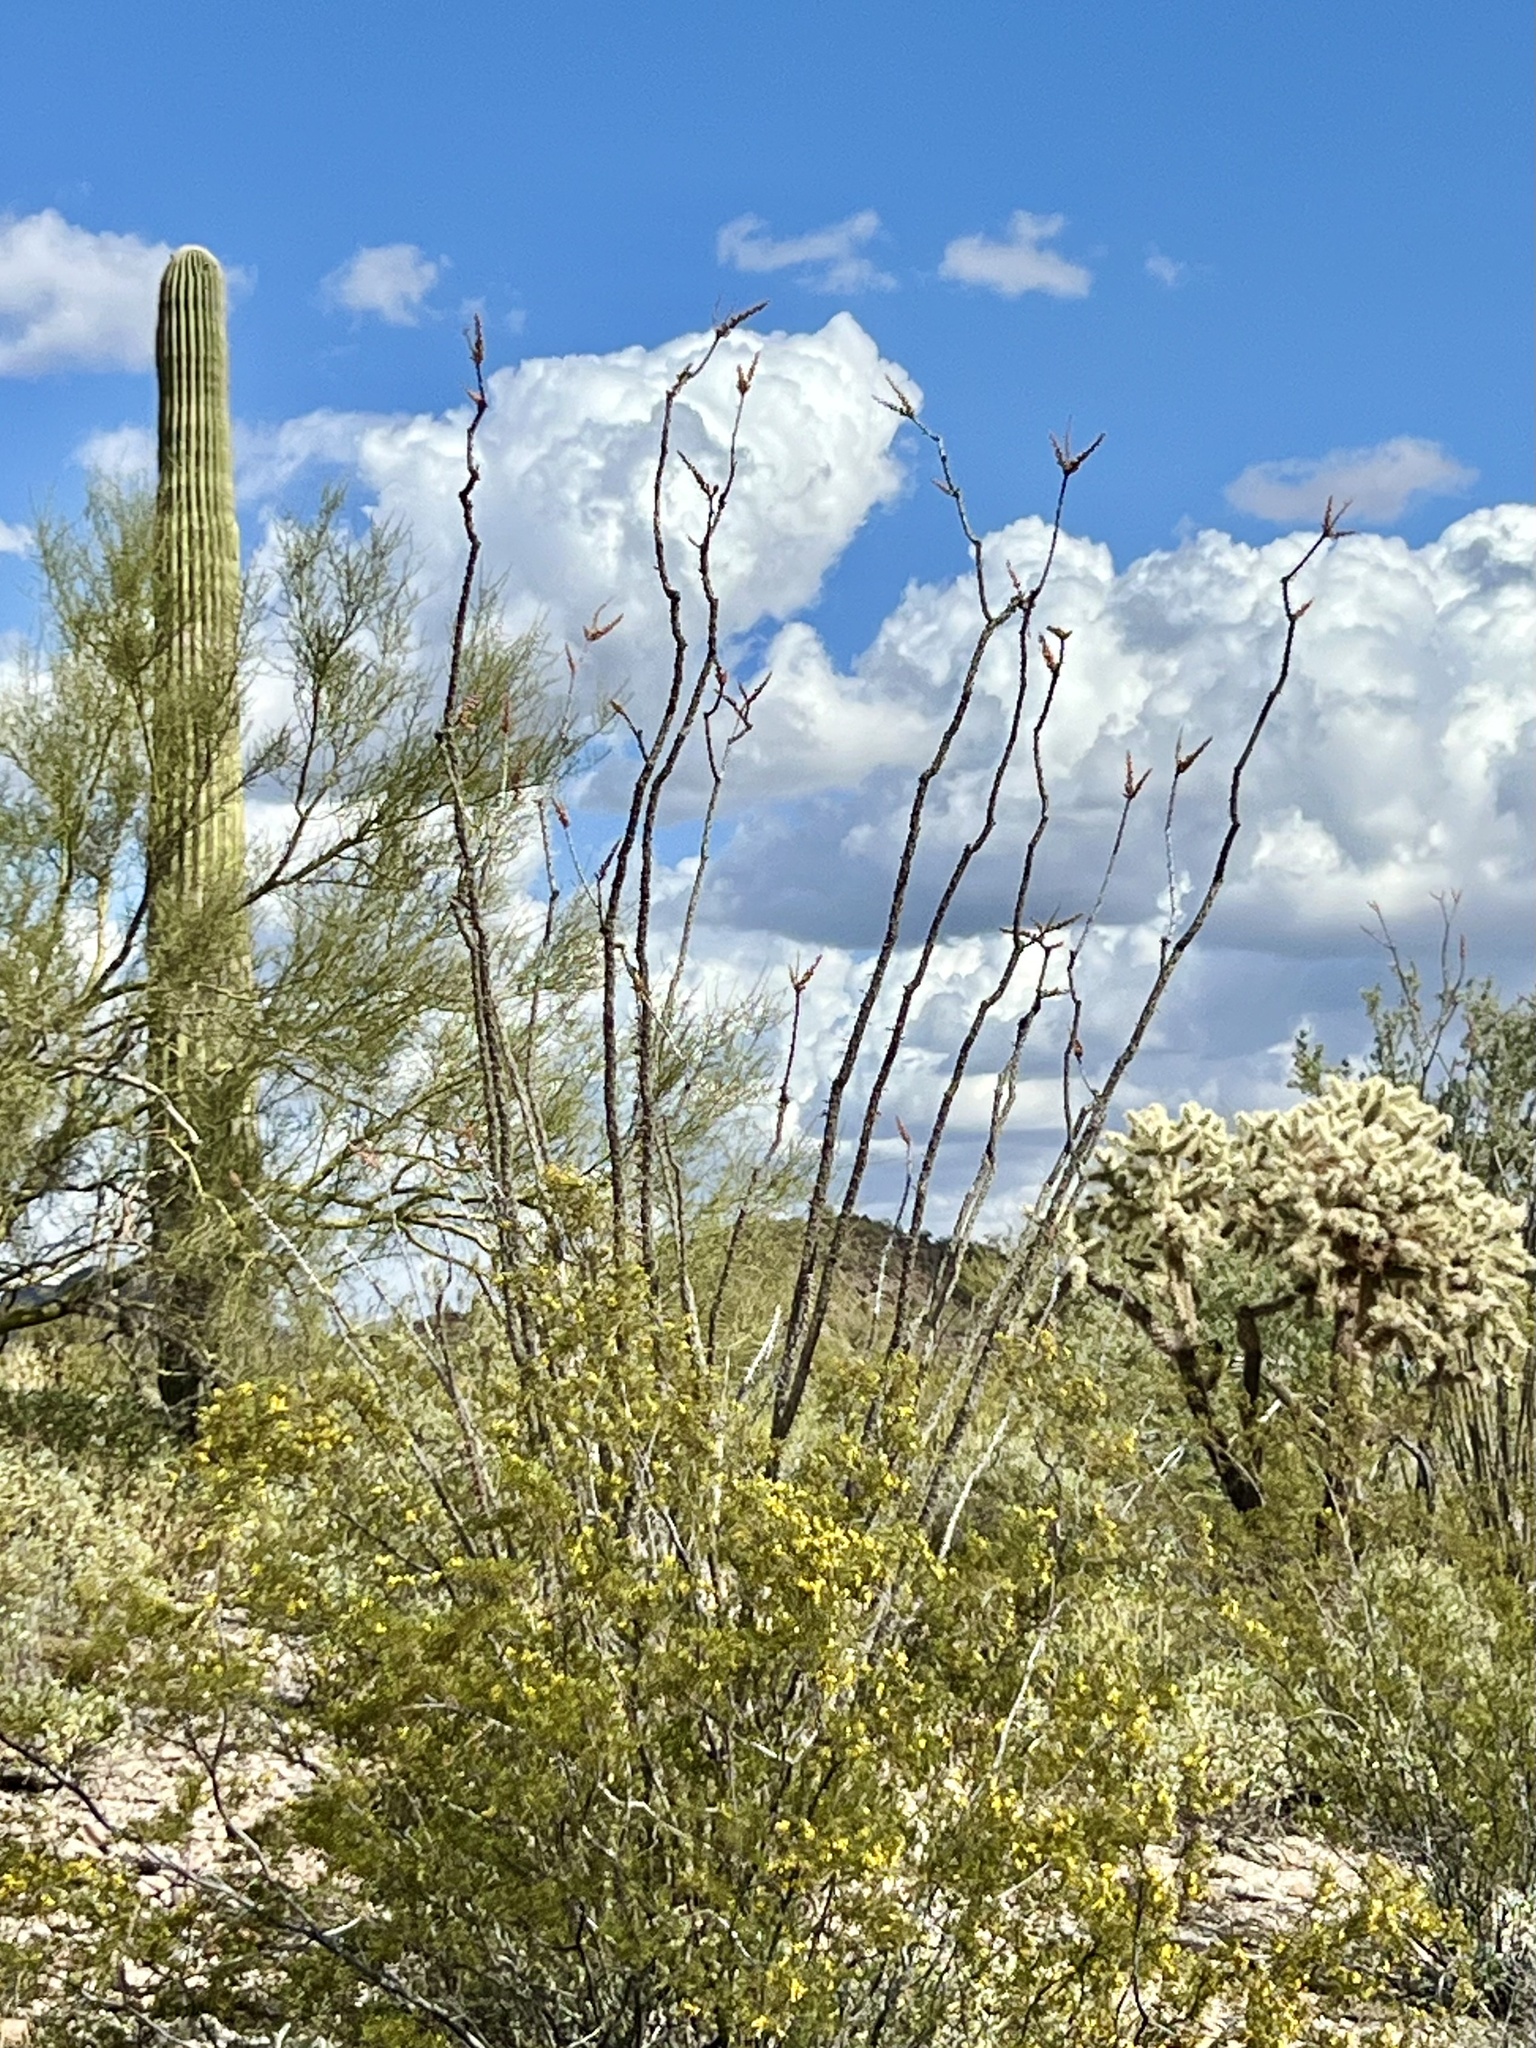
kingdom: Plantae
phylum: Tracheophyta
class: Magnoliopsida
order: Ericales
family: Fouquieriaceae
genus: Fouquieria
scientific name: Fouquieria splendens
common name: Vine-cactus
